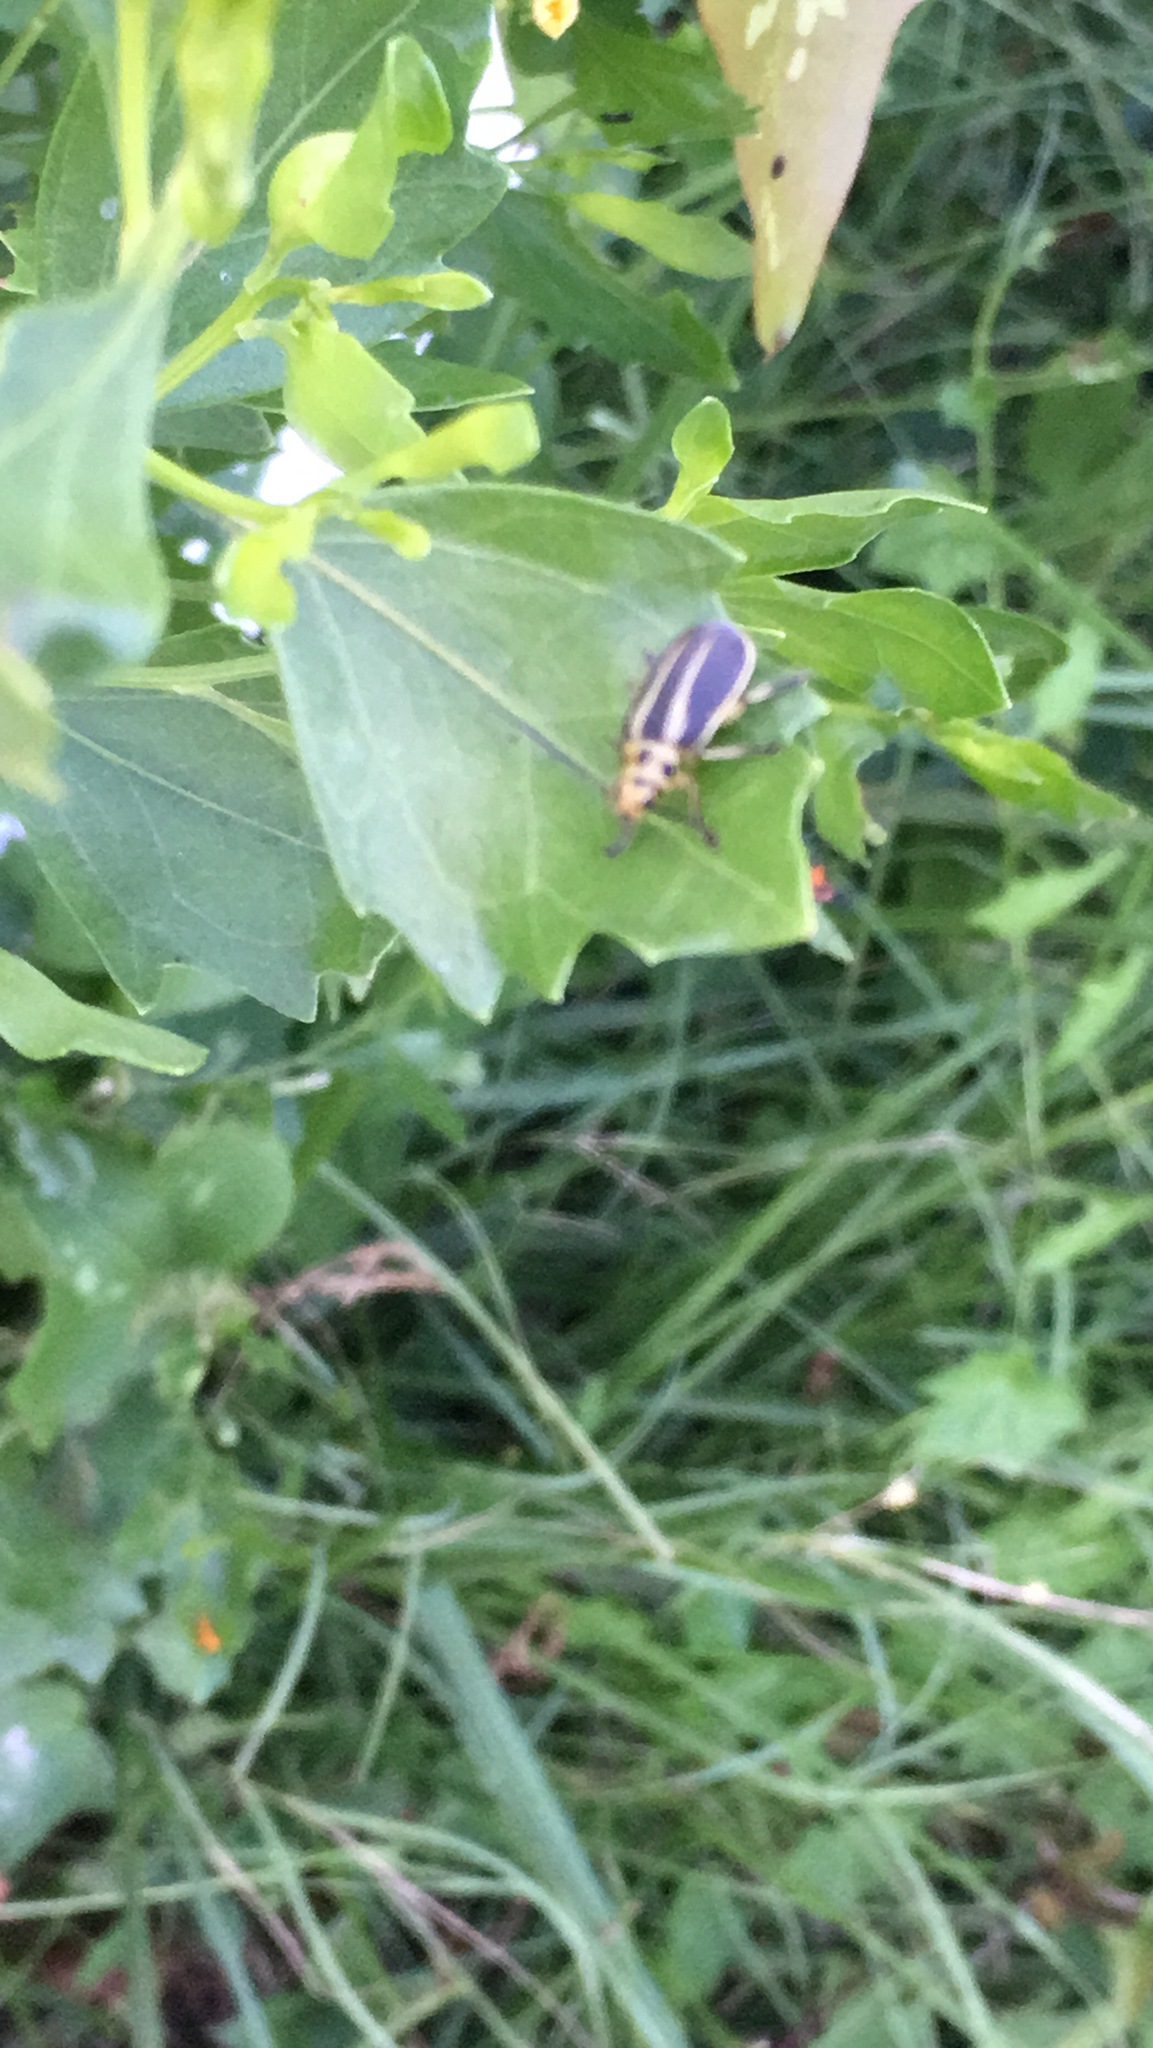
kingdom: Plantae
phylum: Tracheophyta
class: Magnoliopsida
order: Asterales
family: Asteraceae
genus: Baccharis
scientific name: Baccharis halimifolia
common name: Eastern baccharis
